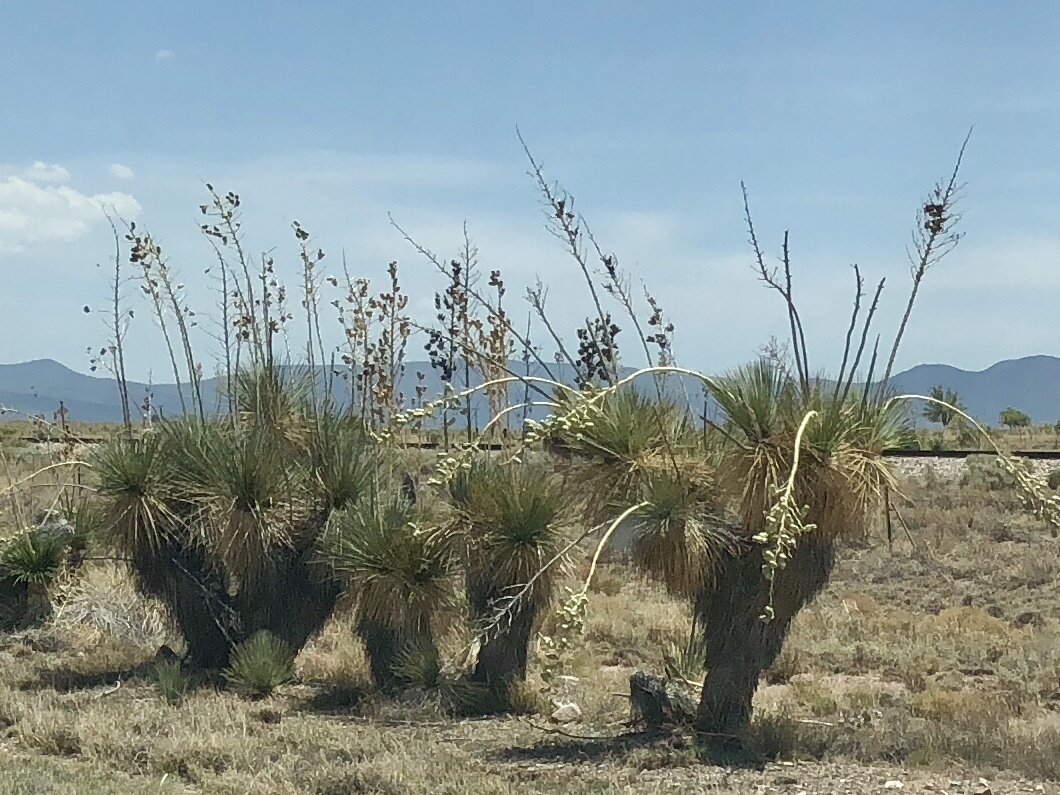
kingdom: Plantae
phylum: Tracheophyta
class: Liliopsida
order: Asparagales
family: Asparagaceae
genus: Yucca
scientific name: Yucca elata
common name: Palmella
